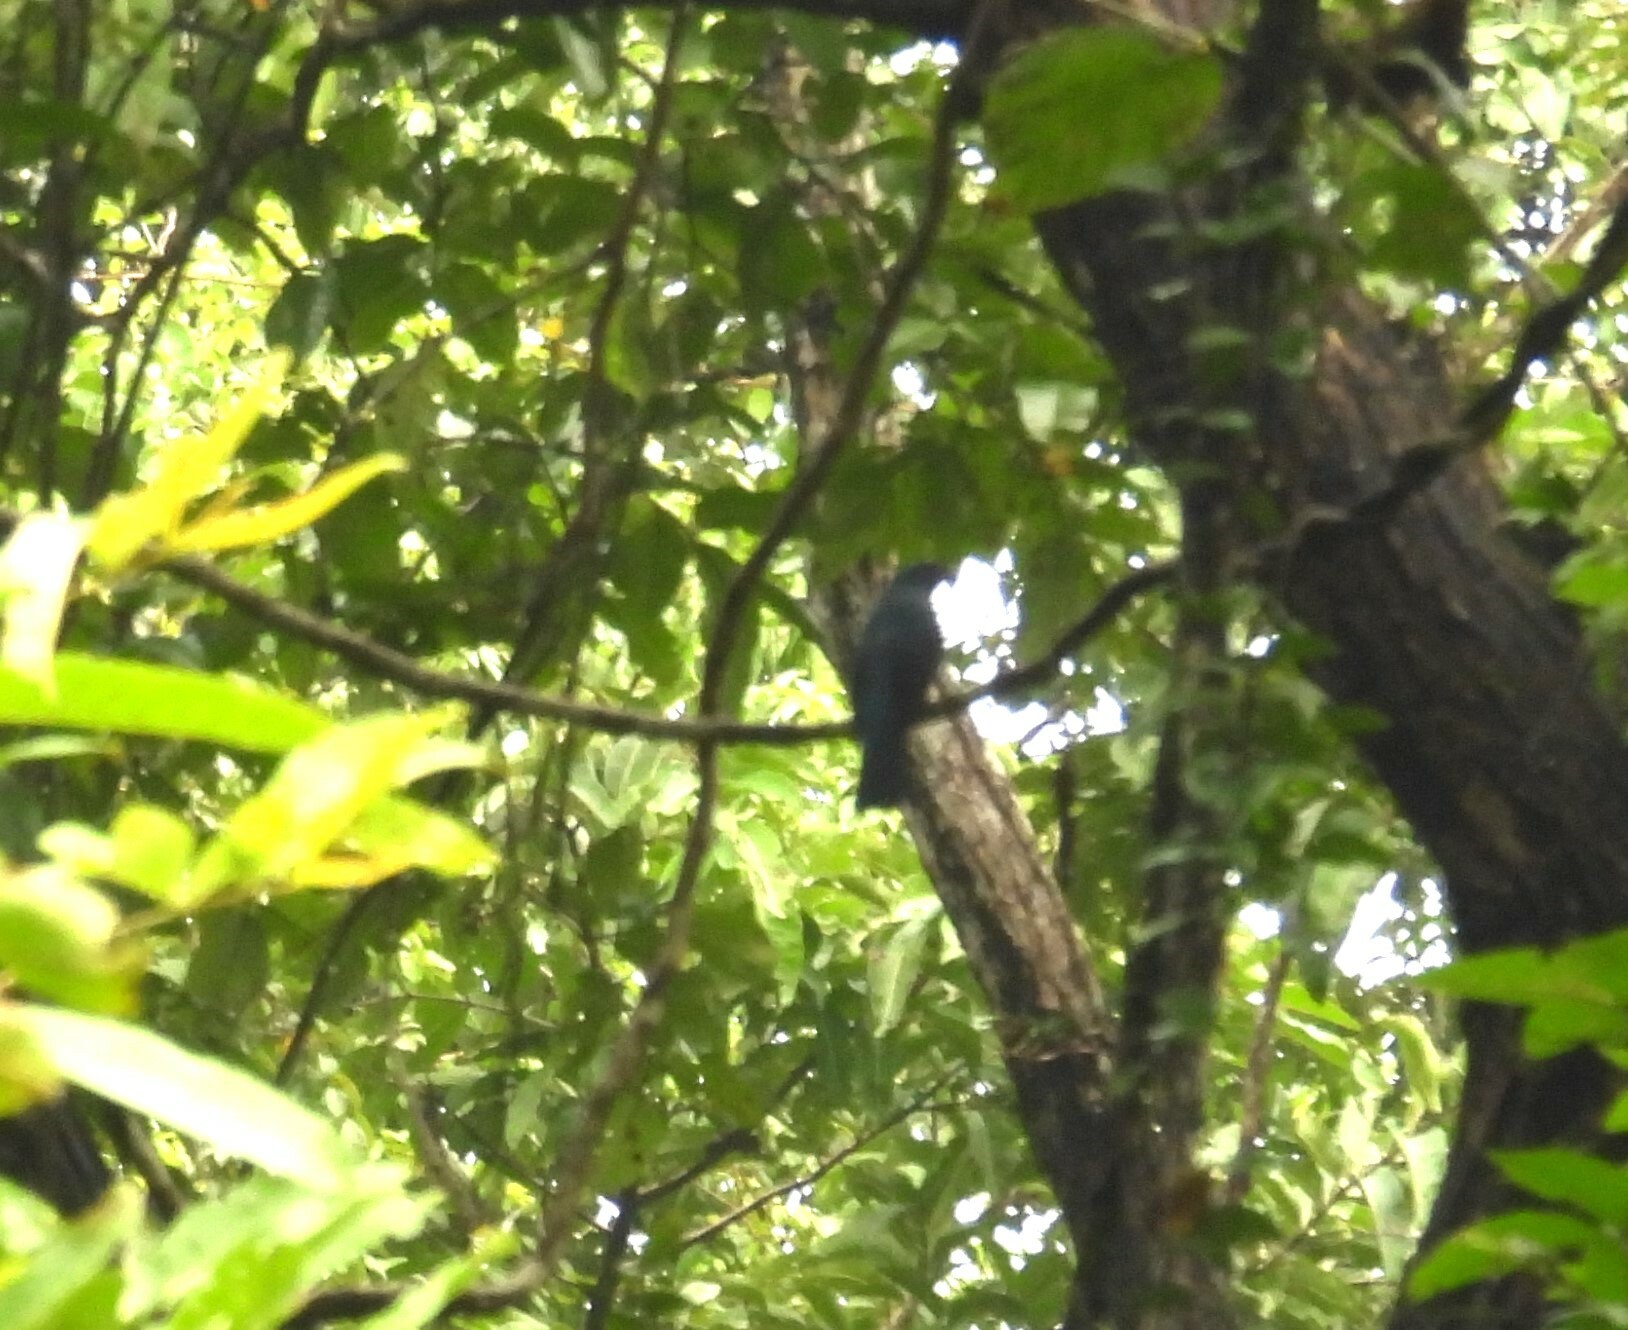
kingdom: Animalia
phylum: Chordata
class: Aves
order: Passeriformes
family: Irenidae
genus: Irena
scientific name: Irena puella
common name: Asian fairy-bluebird
